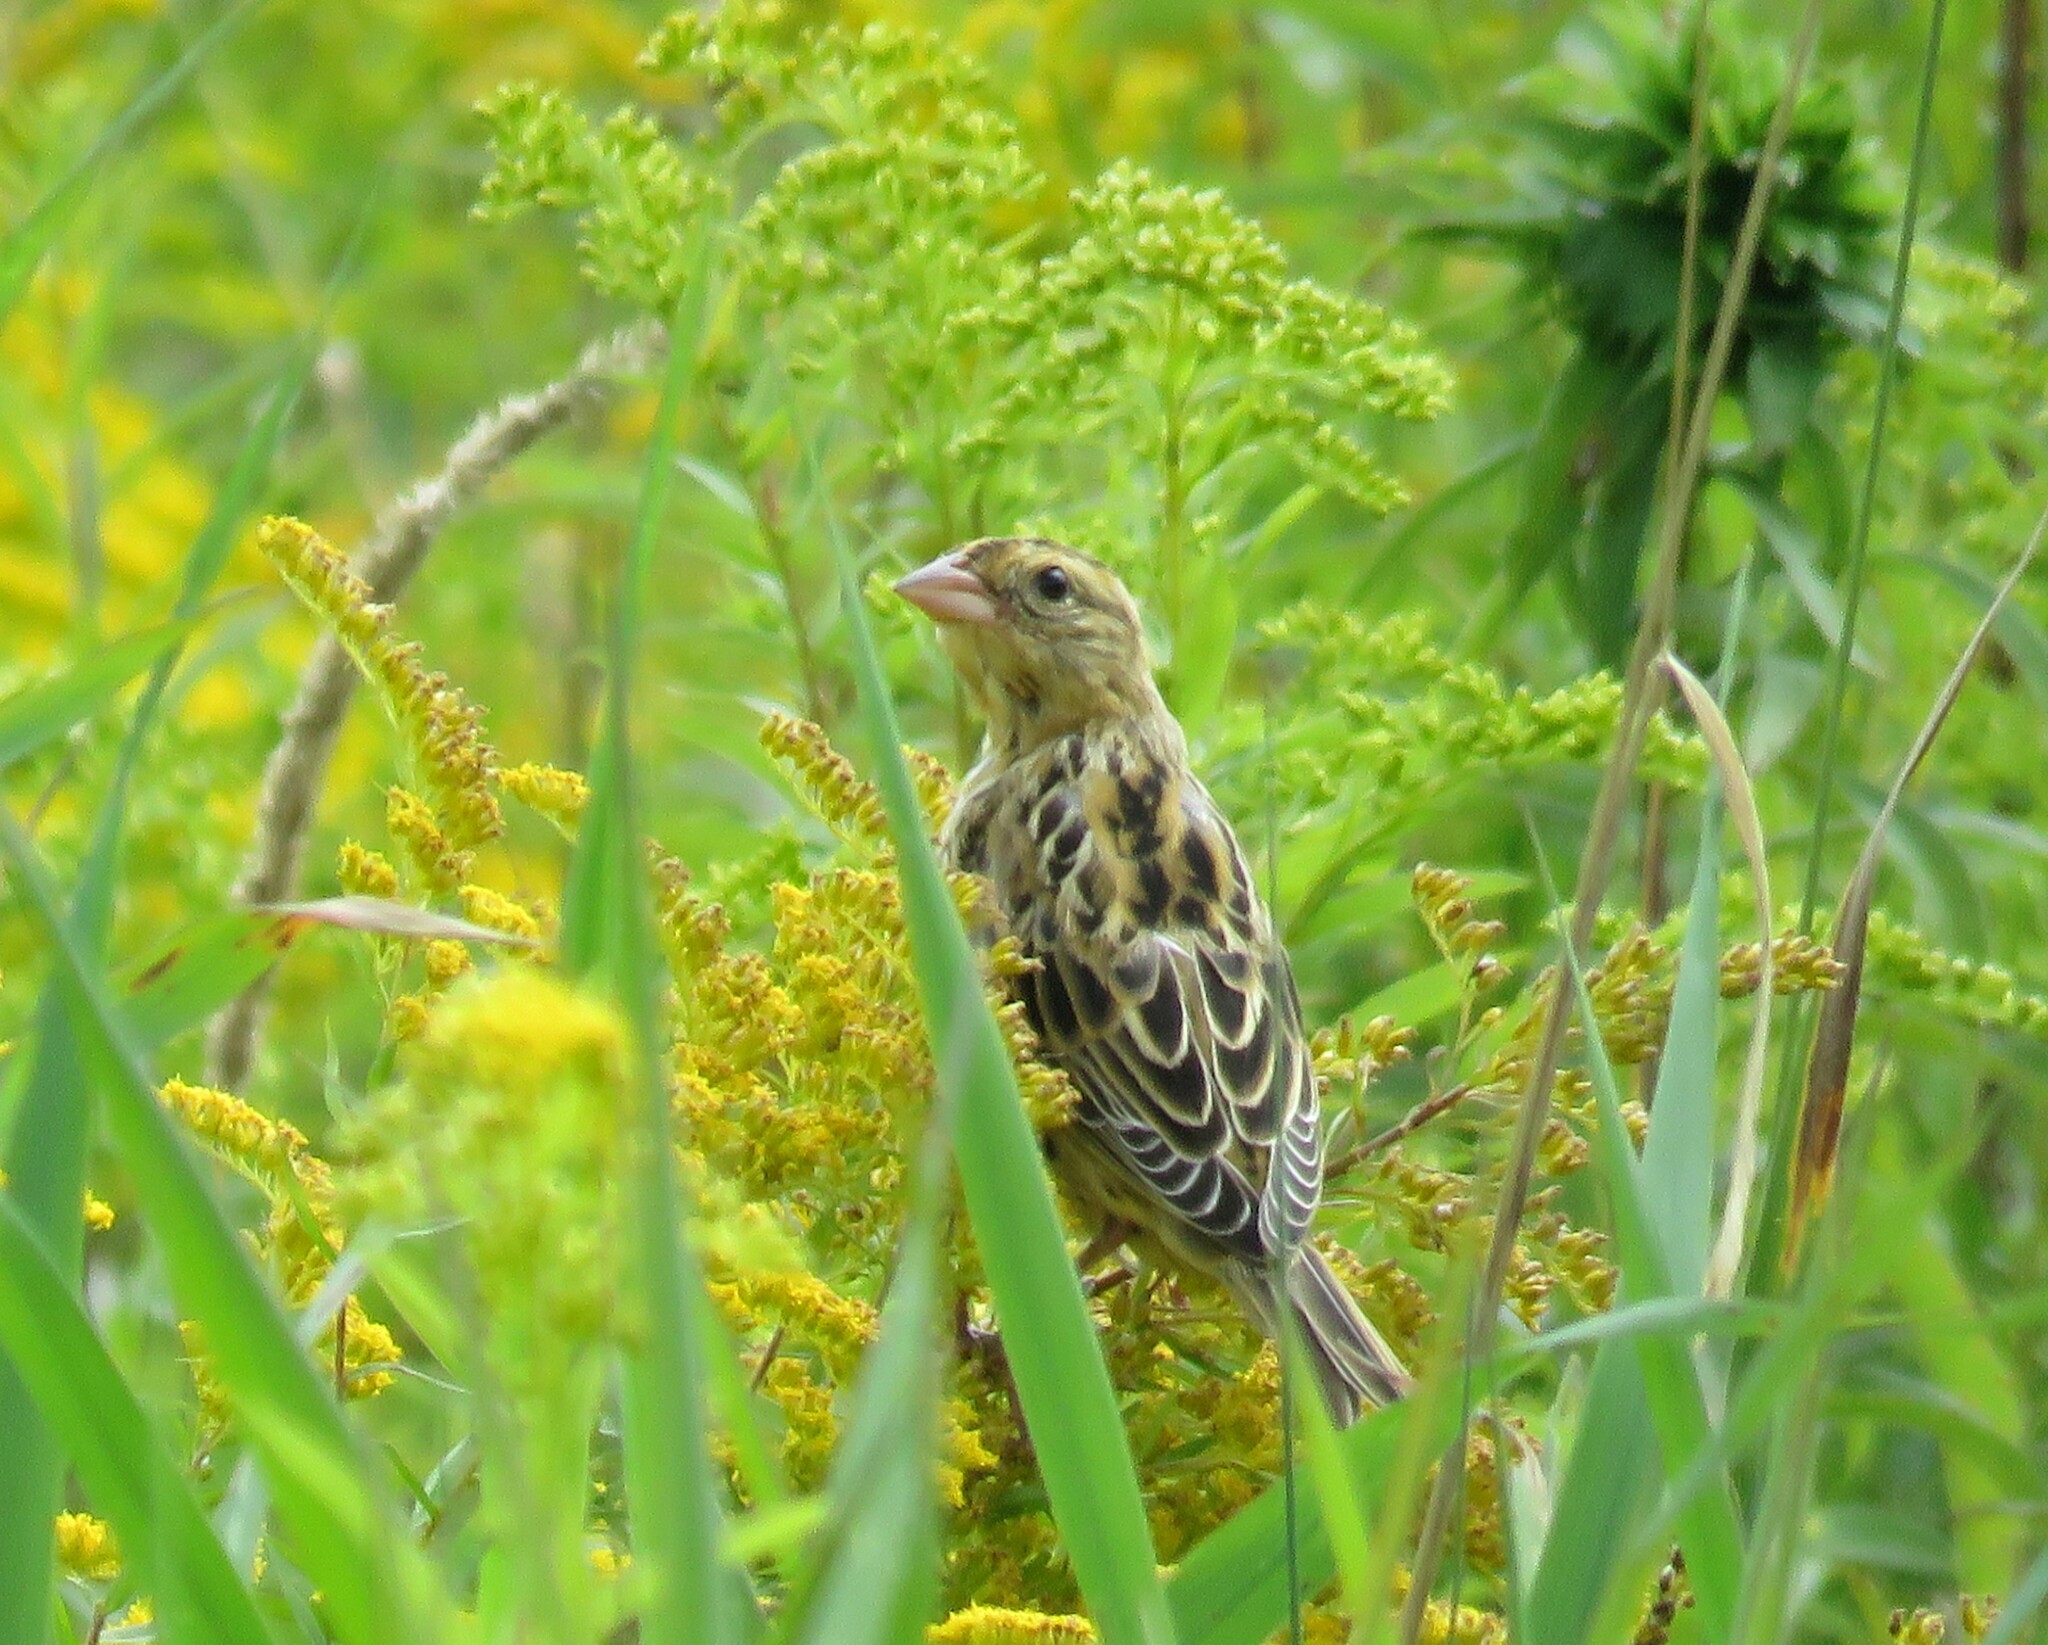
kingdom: Animalia
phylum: Chordata
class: Aves
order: Passeriformes
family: Icteridae
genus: Dolichonyx
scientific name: Dolichonyx oryzivorus
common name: Bobolink
